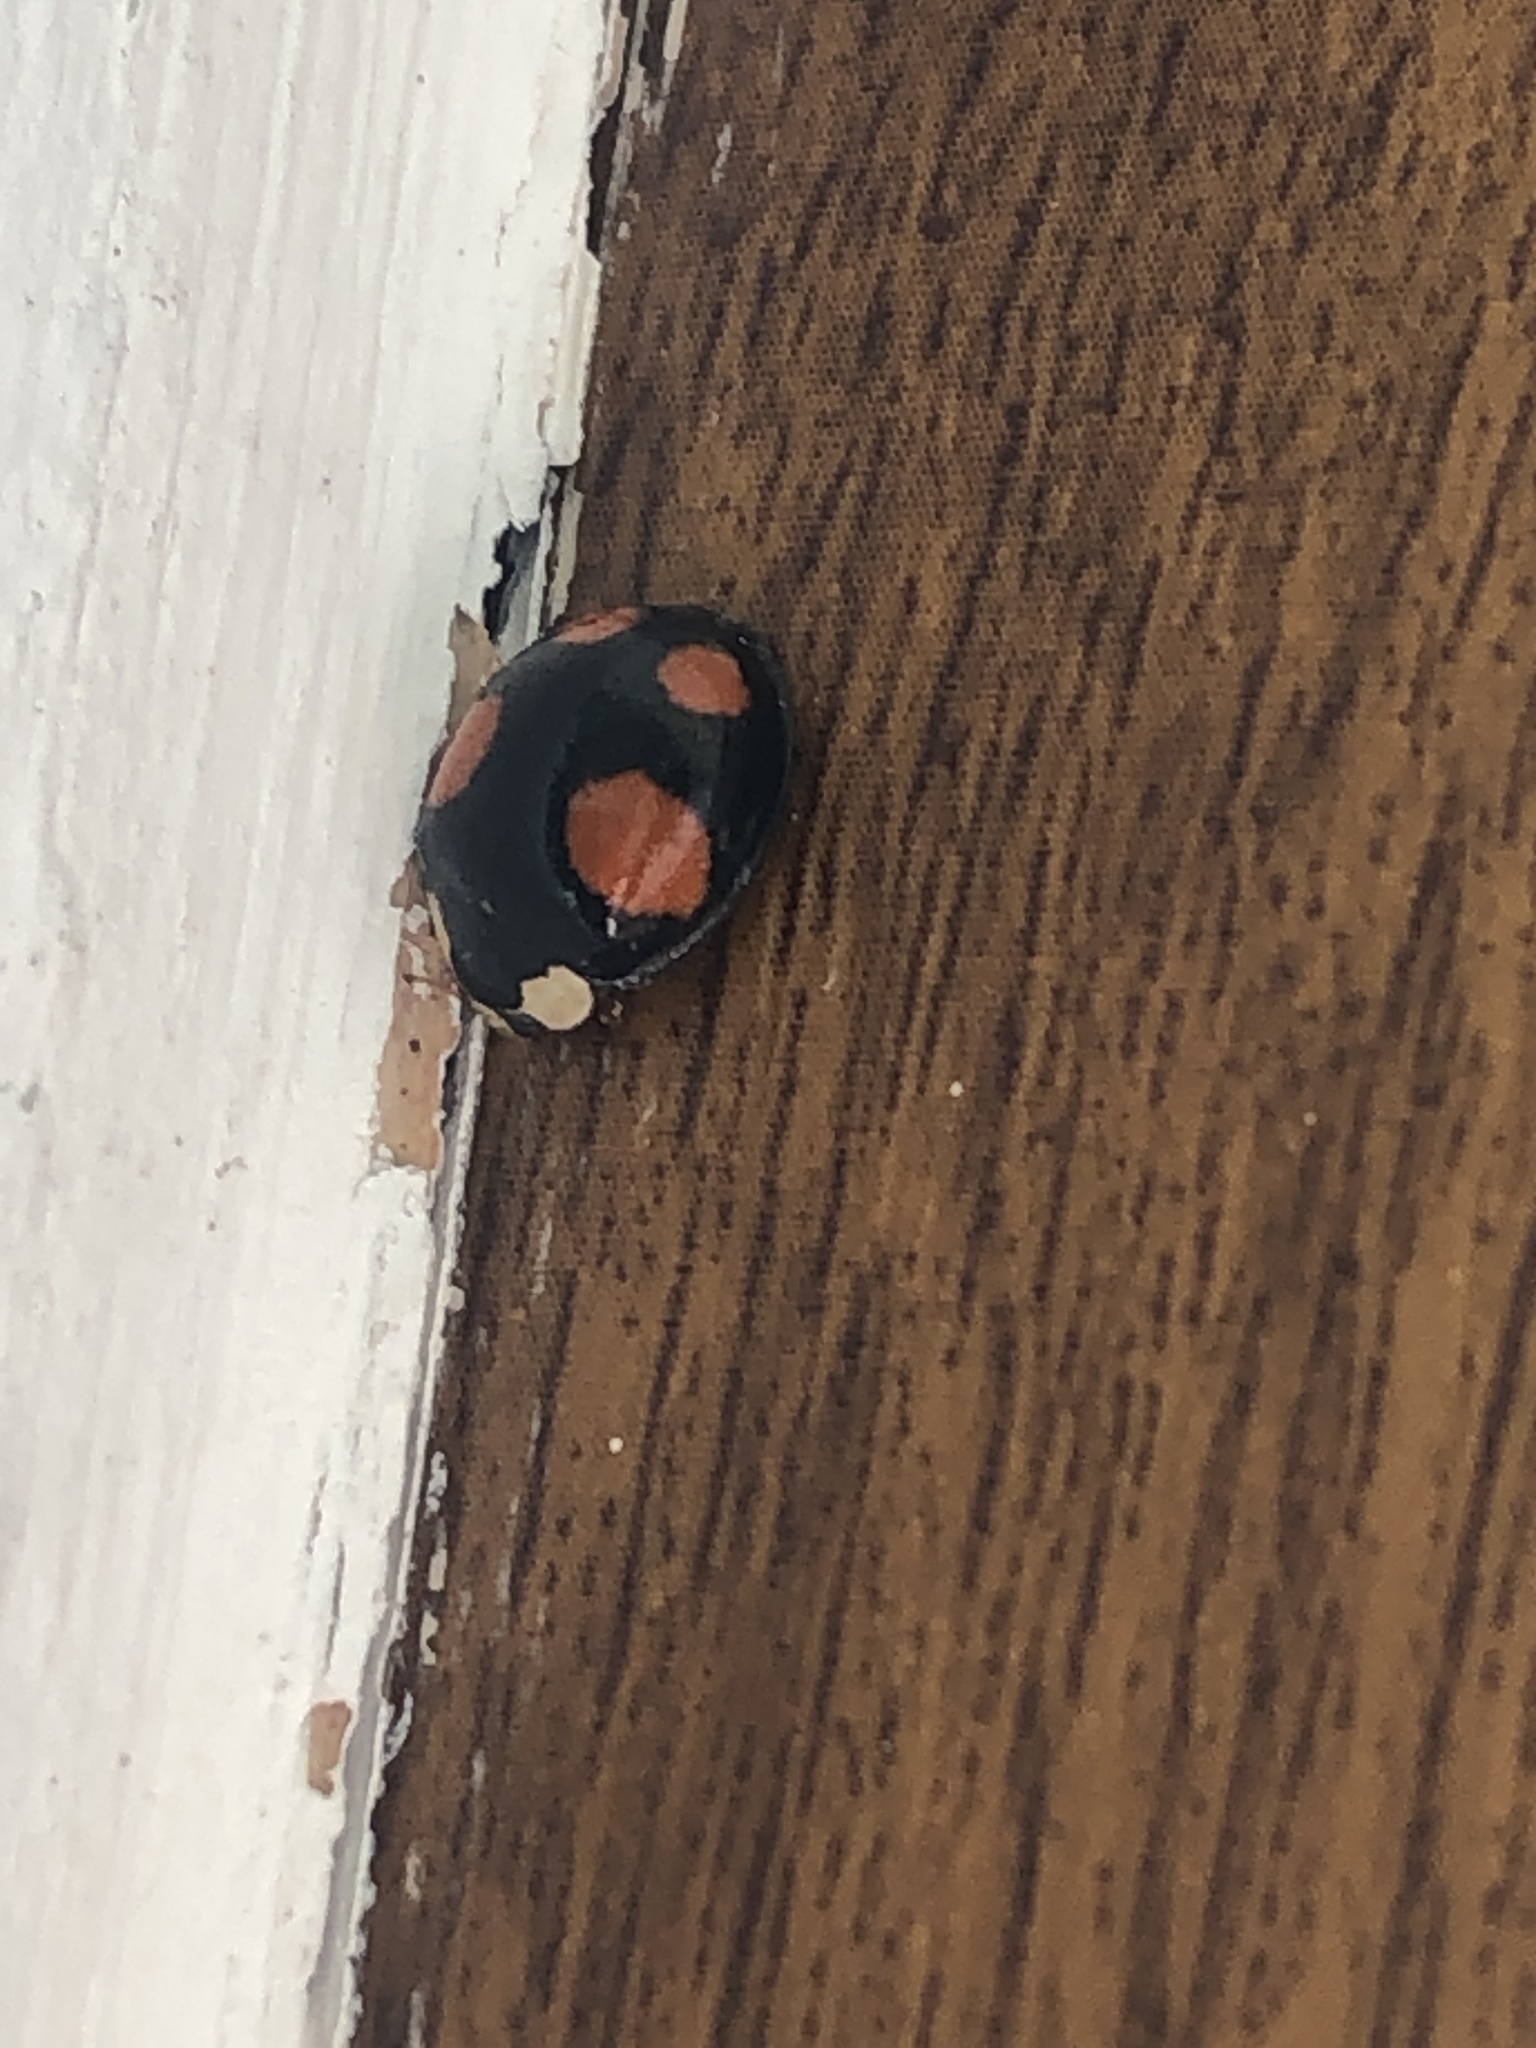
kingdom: Animalia
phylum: Arthropoda
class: Insecta
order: Coleoptera
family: Coccinellidae
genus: Harmonia
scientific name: Harmonia axyridis
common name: Harlequin ladybird
